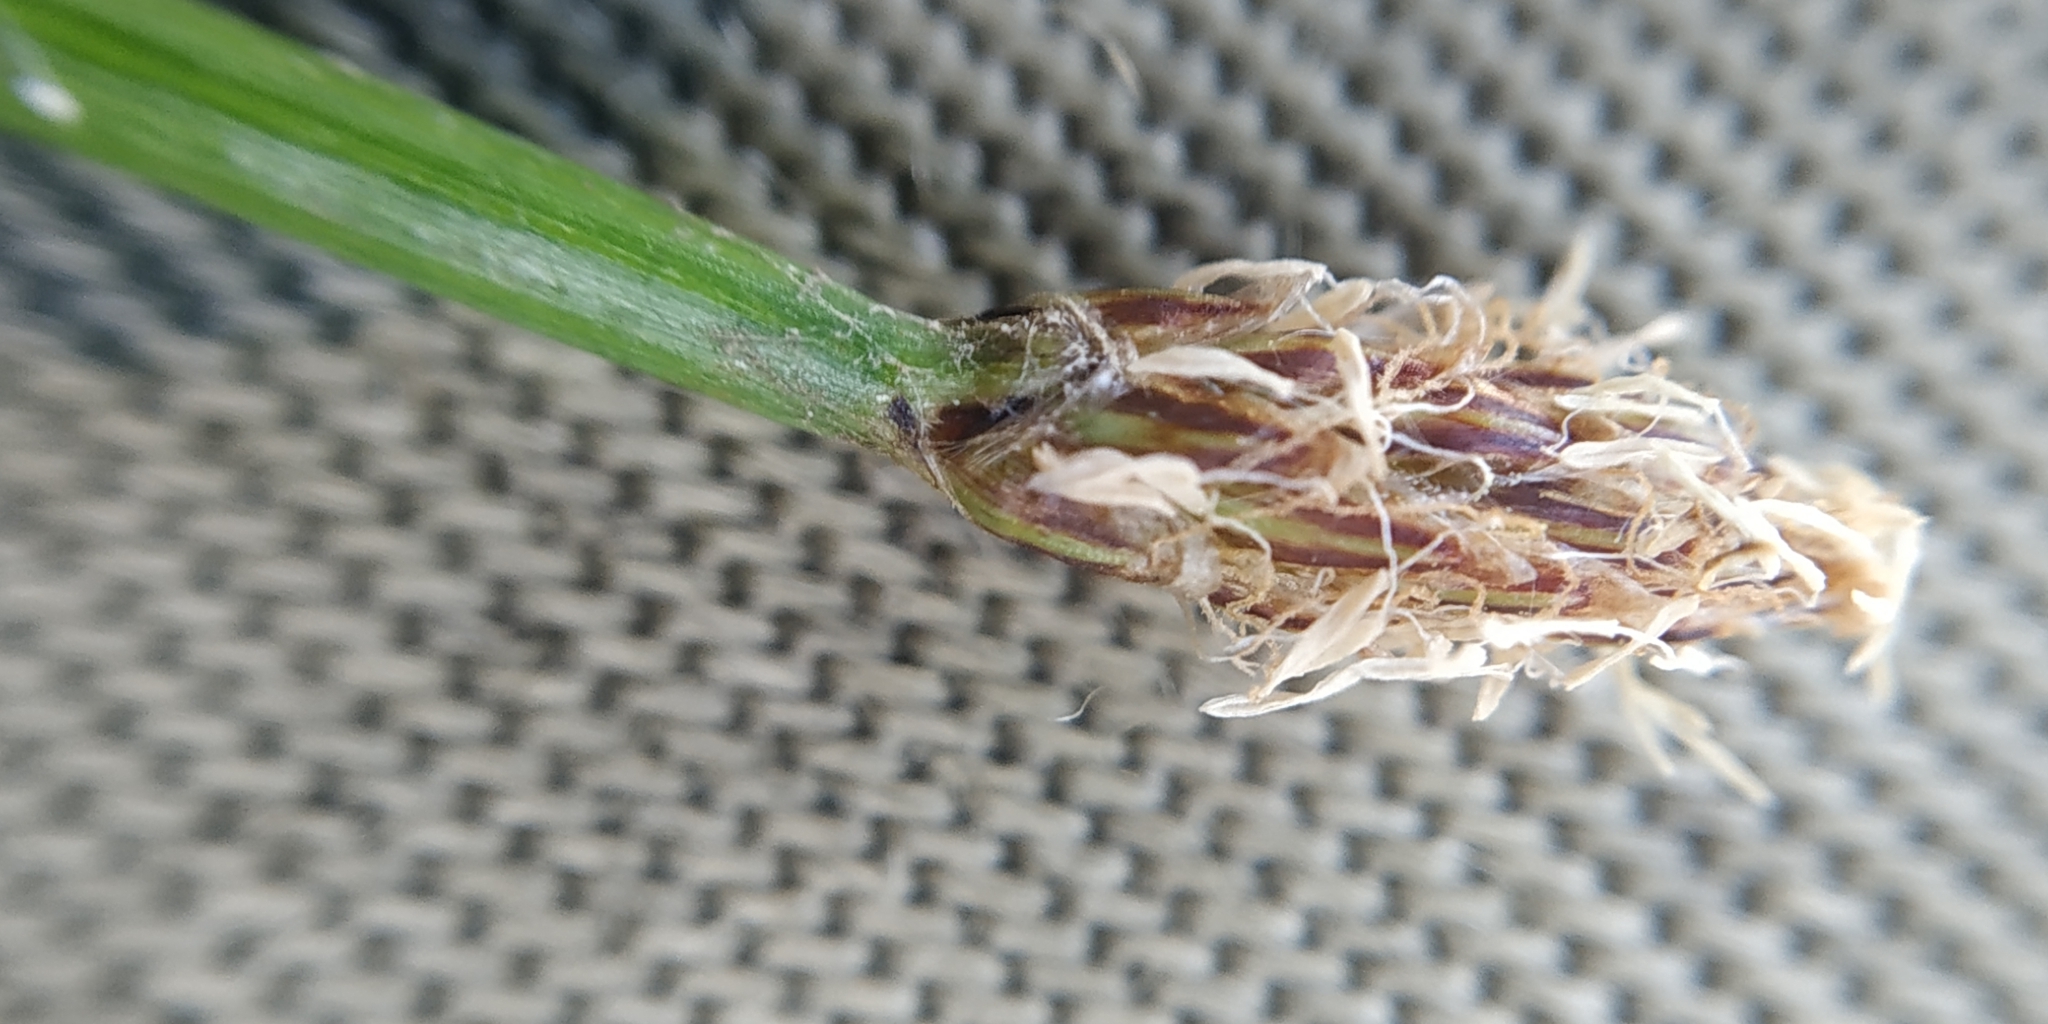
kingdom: Plantae
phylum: Tracheophyta
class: Liliopsida
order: Poales
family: Cyperaceae
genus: Eleocharis
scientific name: Eleocharis palustris
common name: Common spike-rush
